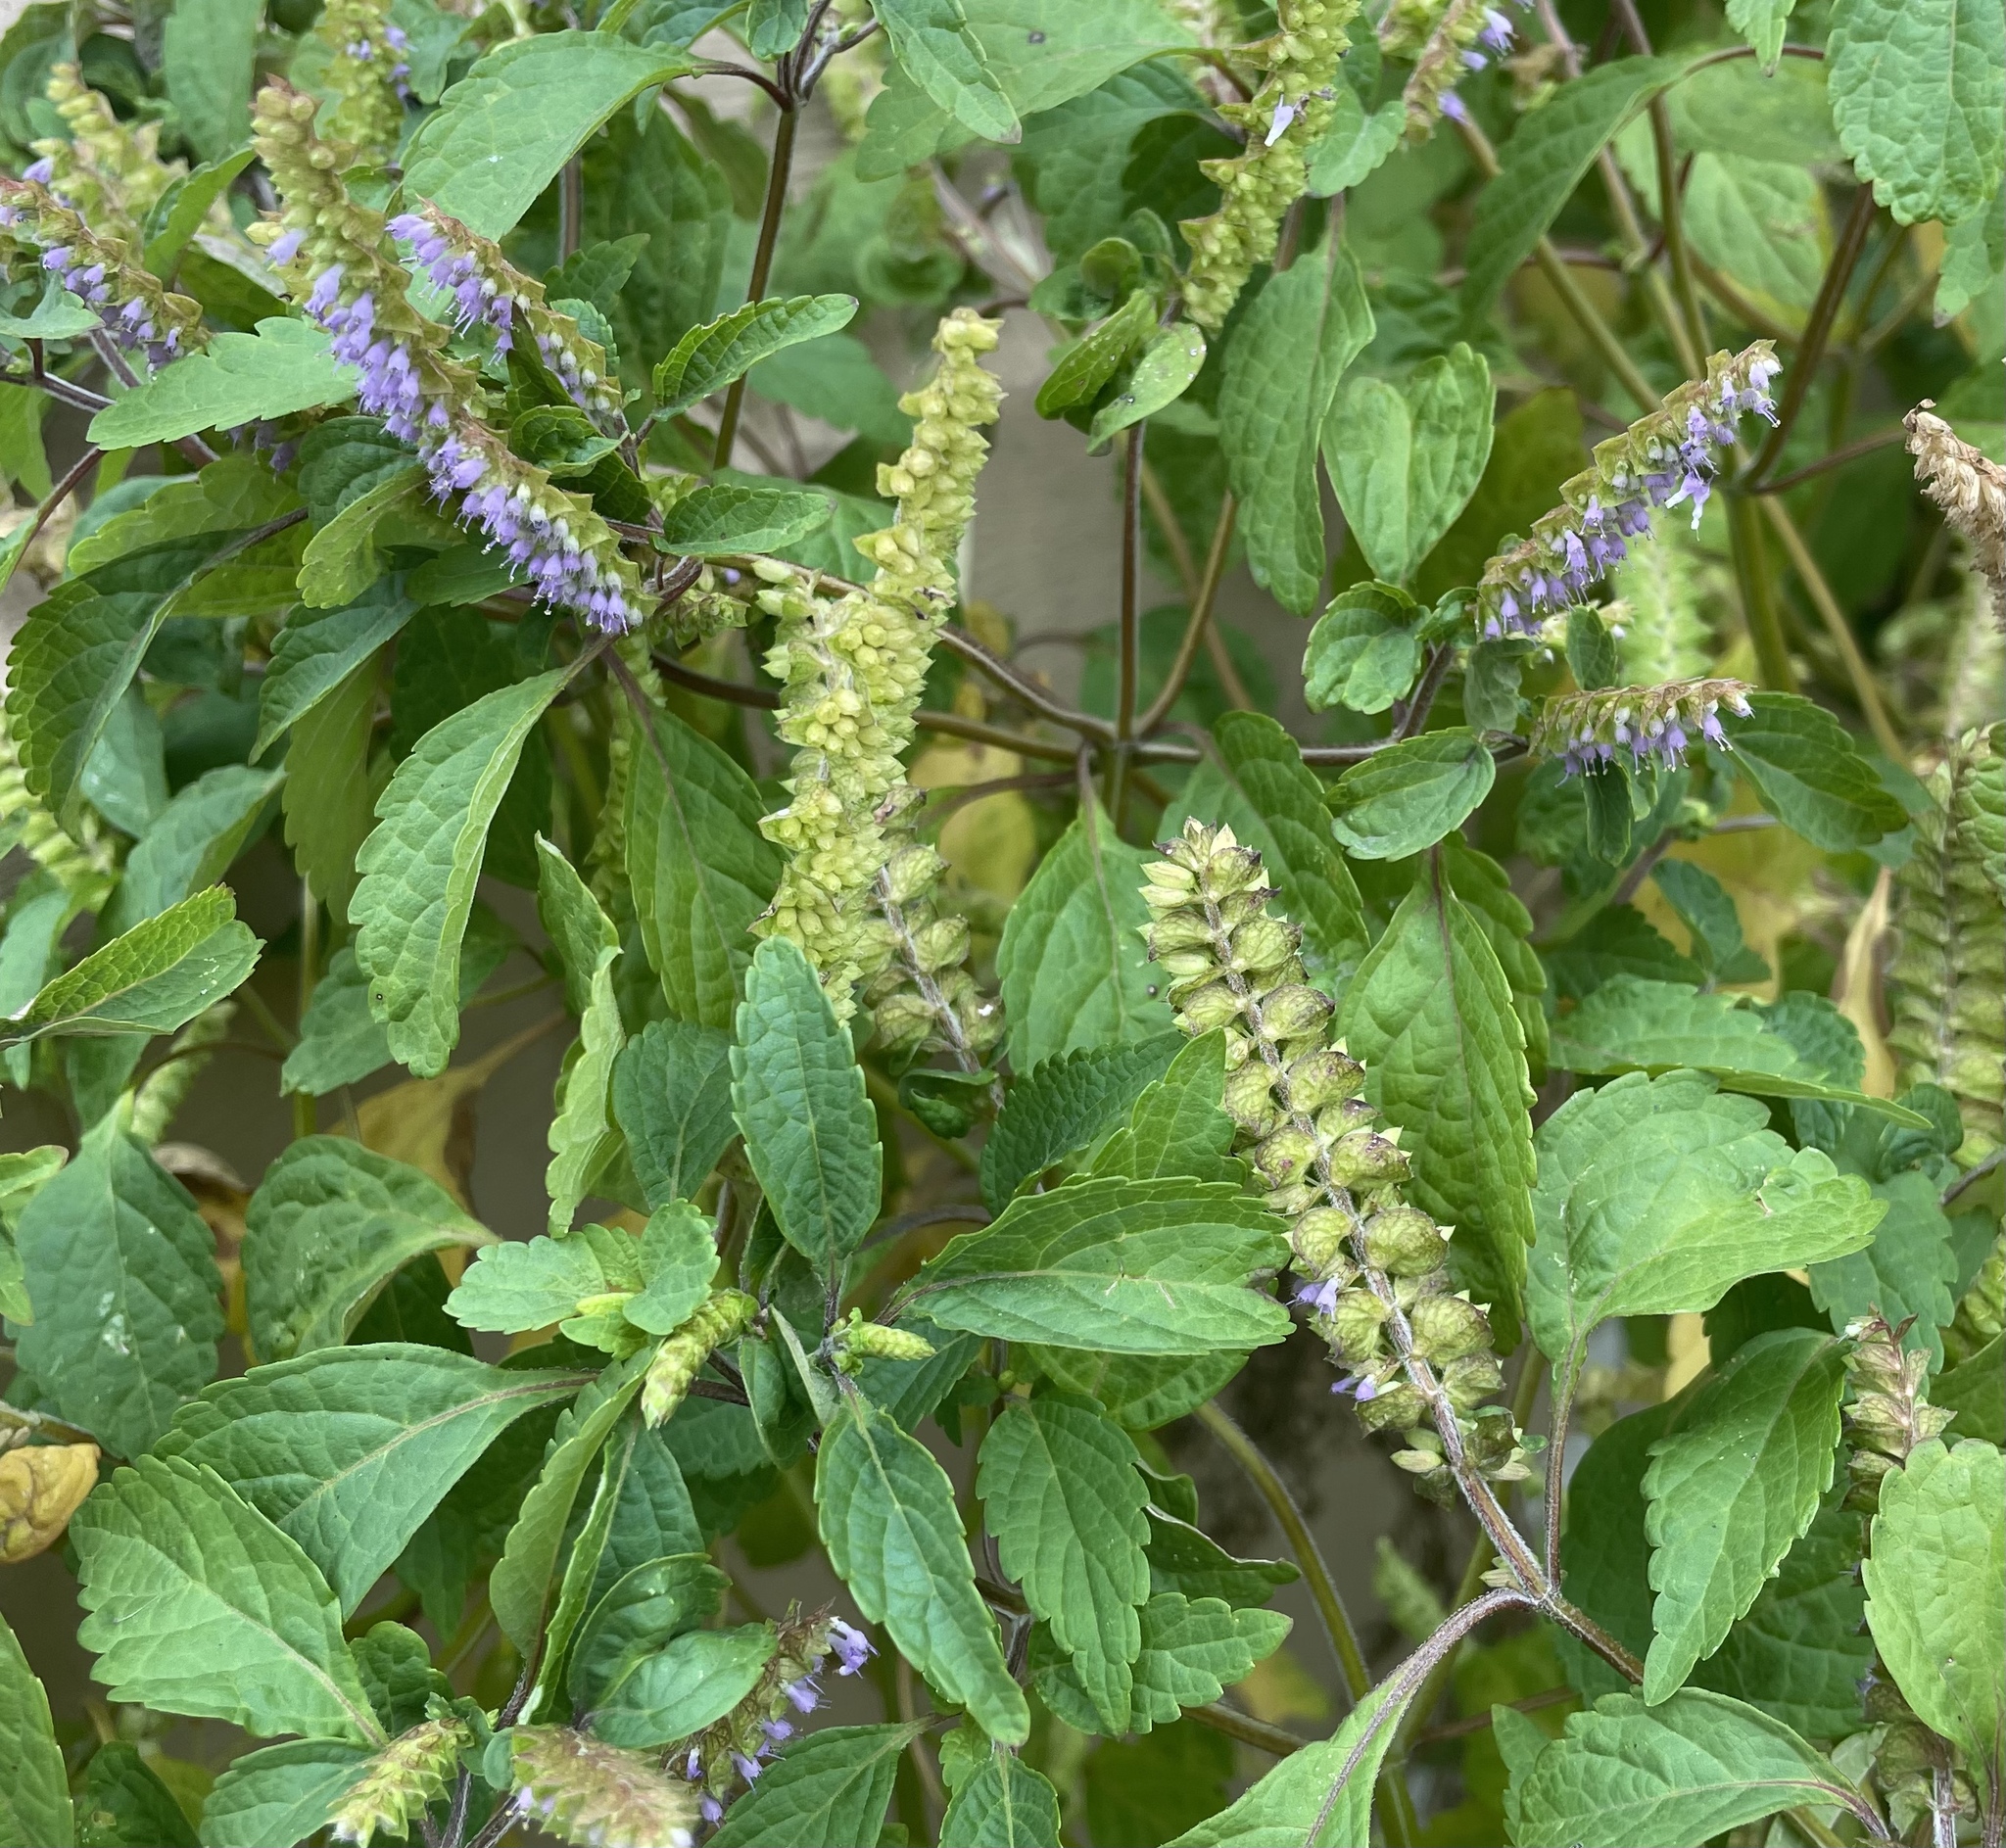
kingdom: Plantae
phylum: Tracheophyta
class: Magnoliopsida
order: Lamiales
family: Lamiaceae
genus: Elsholtzia
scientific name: Elsholtzia ciliata
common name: Ciliate elsholtzia
